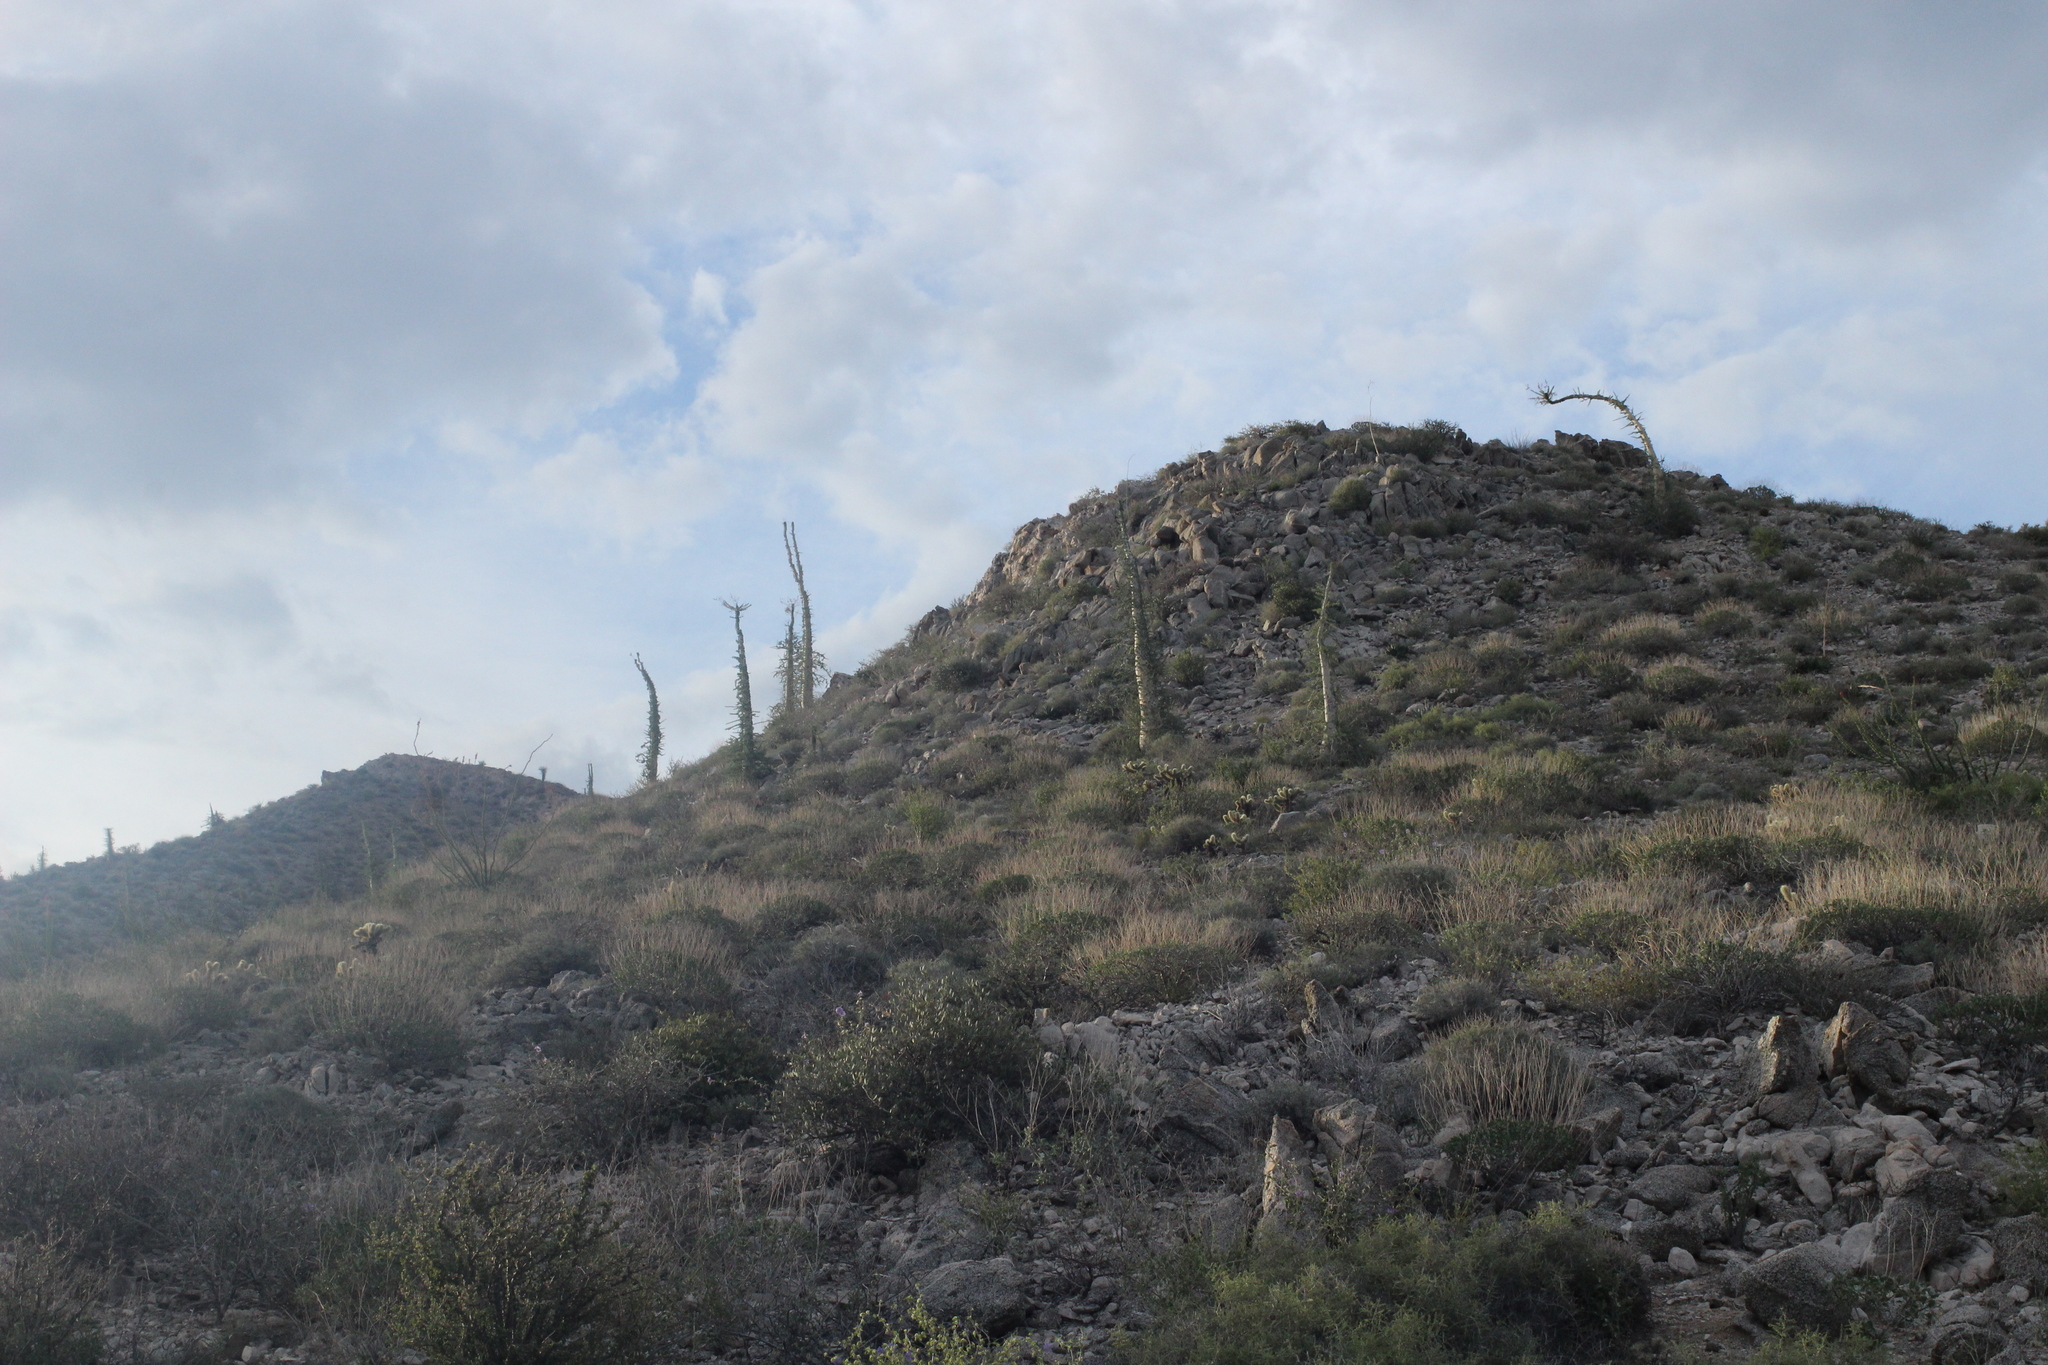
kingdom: Plantae
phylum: Tracheophyta
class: Magnoliopsida
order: Ericales
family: Fouquieriaceae
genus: Fouquieria
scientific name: Fouquieria columnaris
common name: Boojumtree
